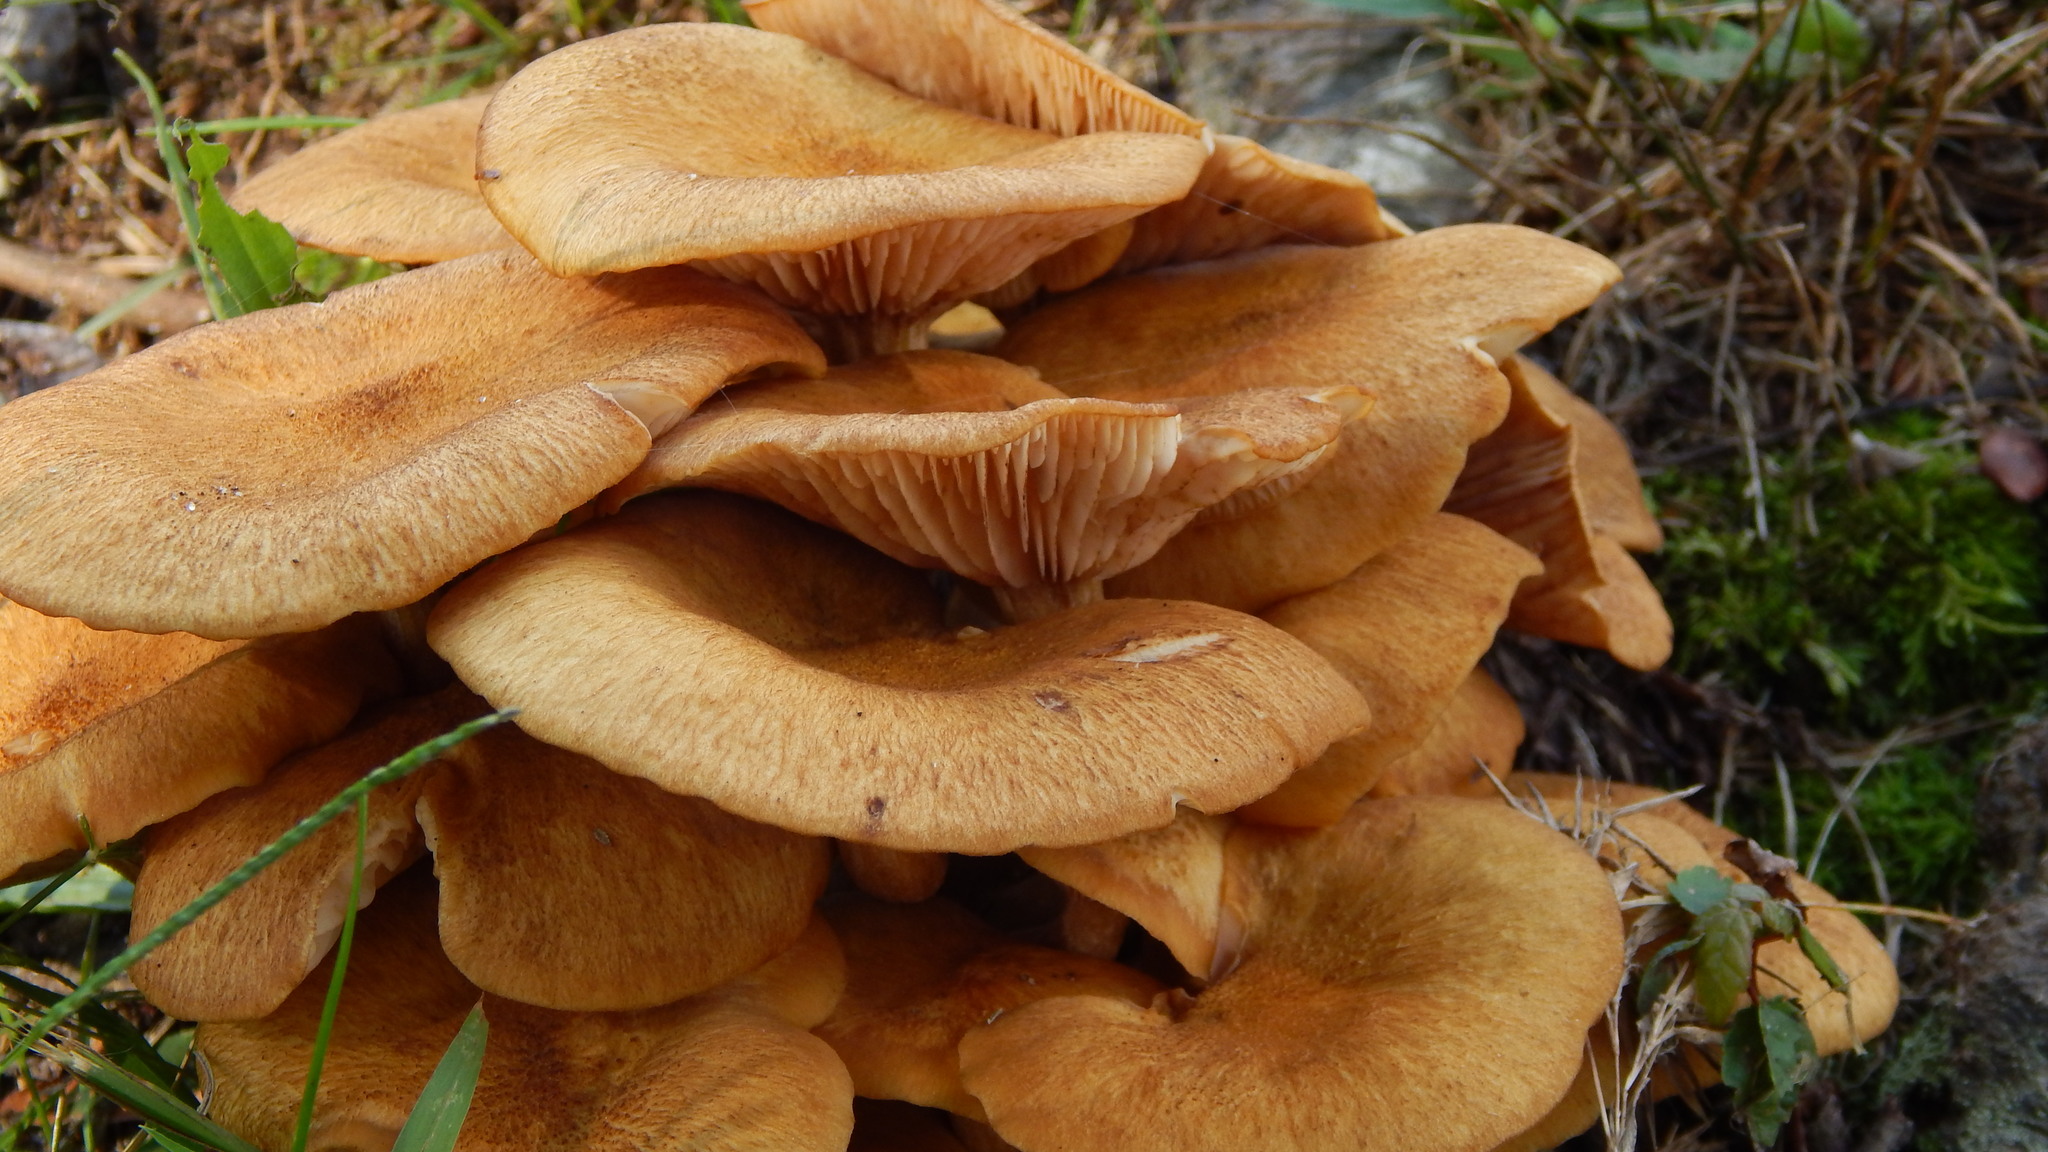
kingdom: Fungi
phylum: Basidiomycota
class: Agaricomycetes
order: Agaricales
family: Physalacriaceae
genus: Desarmillaria
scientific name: Desarmillaria caespitosa
